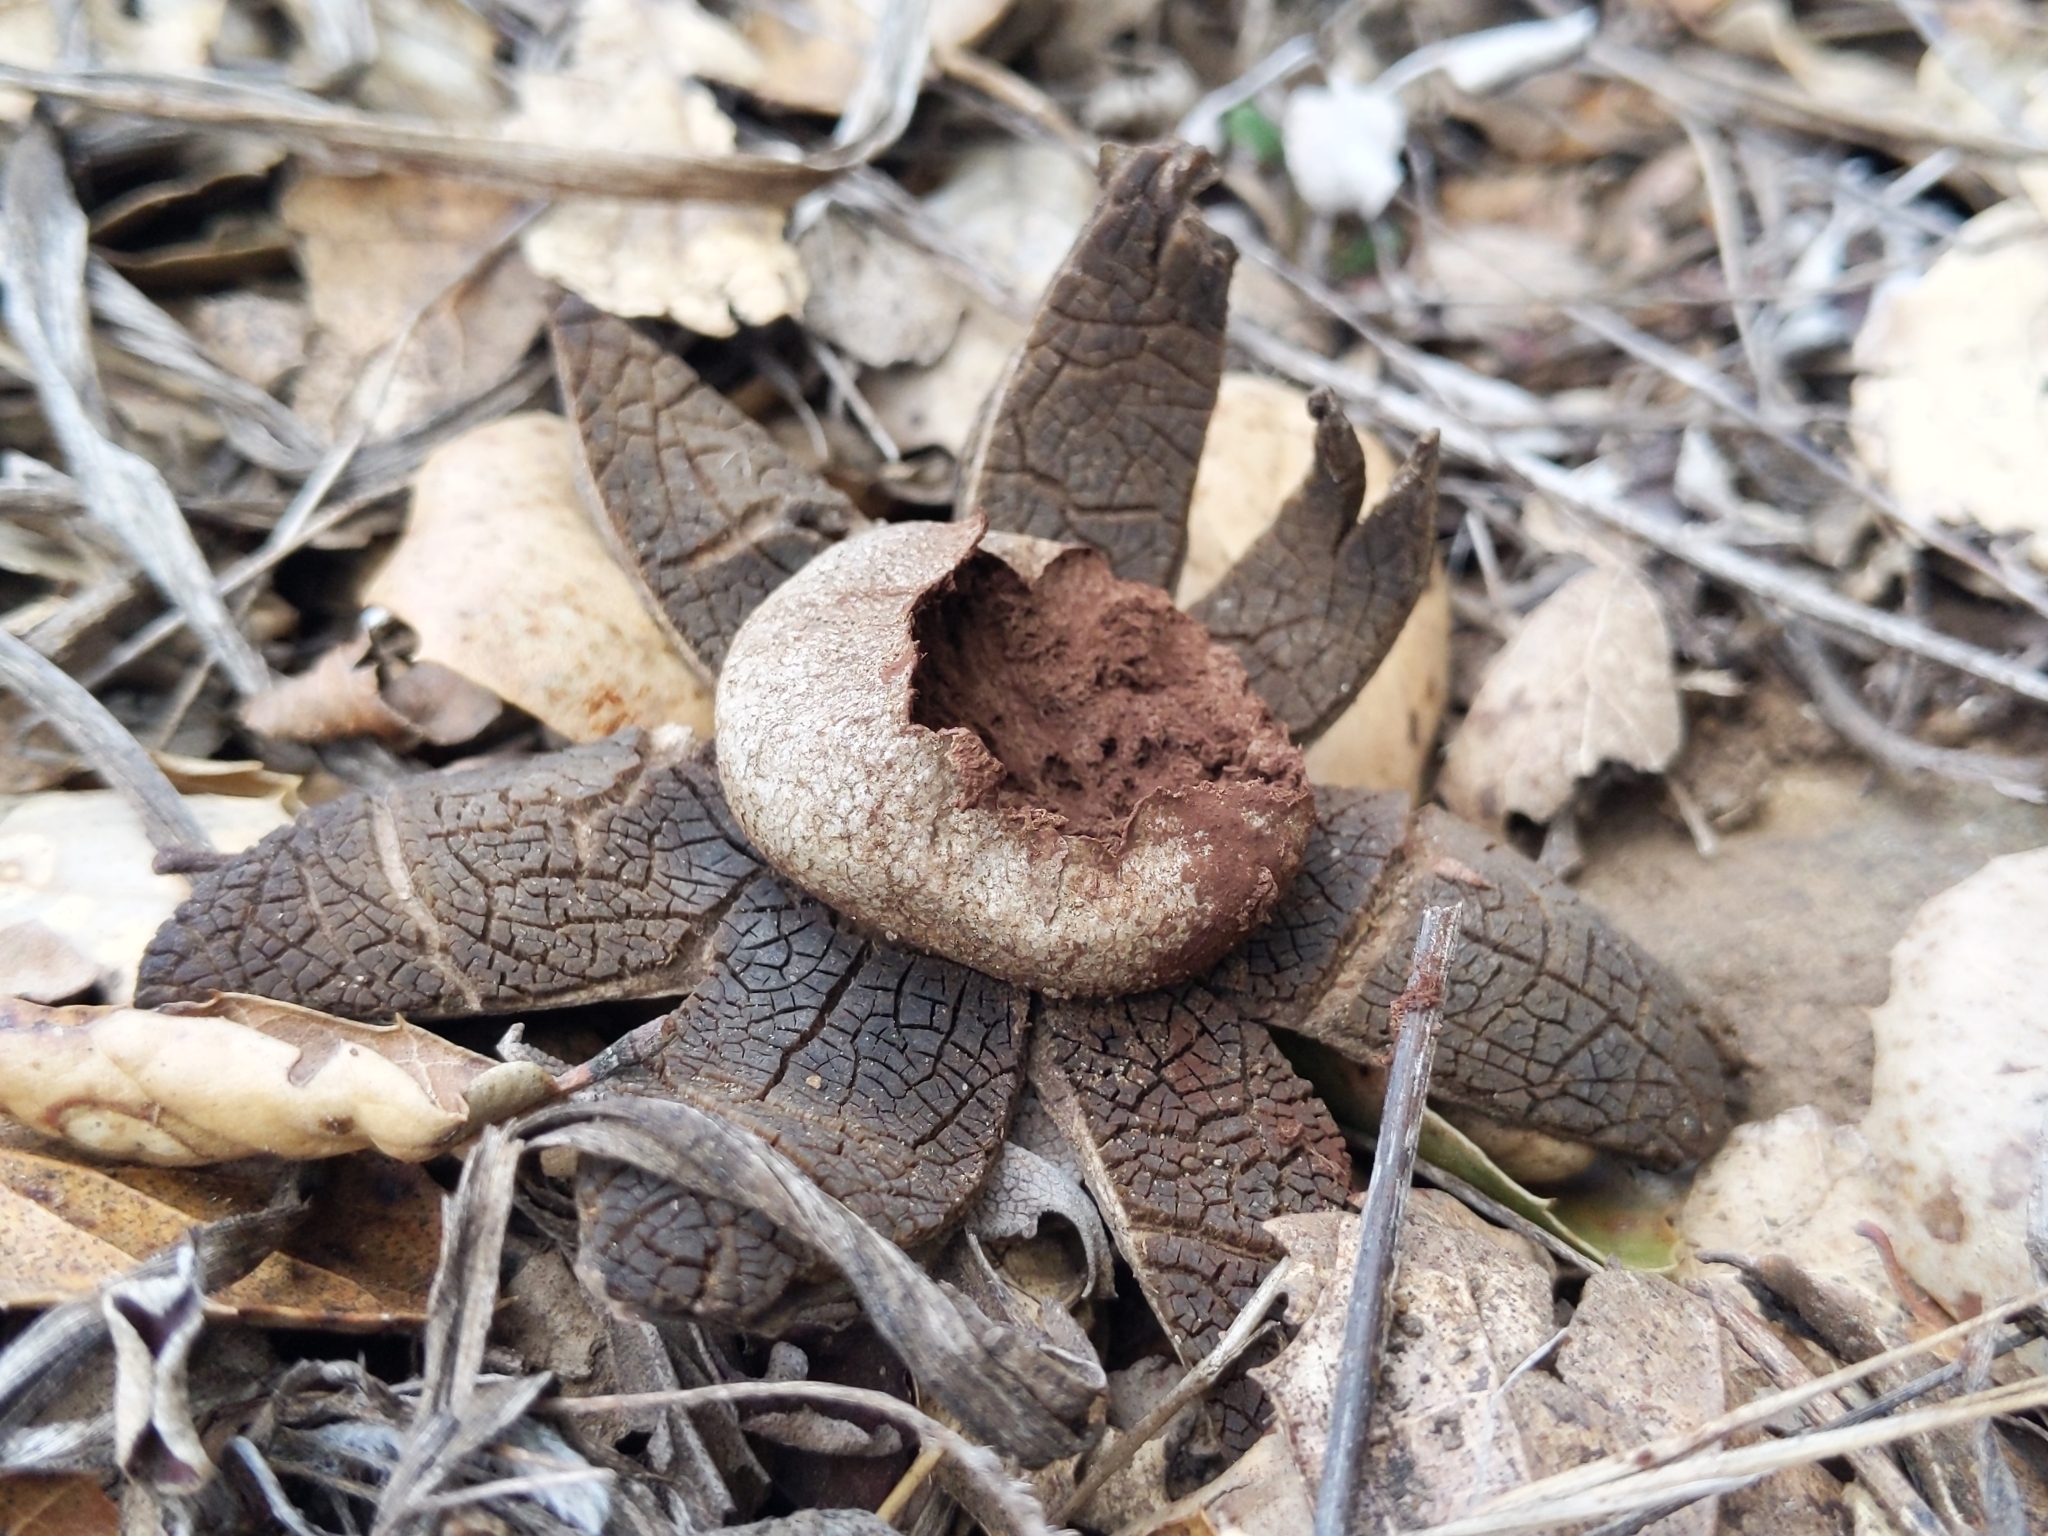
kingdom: Fungi
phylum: Basidiomycota
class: Agaricomycetes
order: Boletales
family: Diplocystidiaceae
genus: Astraeus
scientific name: Astraeus hygrometricus
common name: Barometer earthstar
